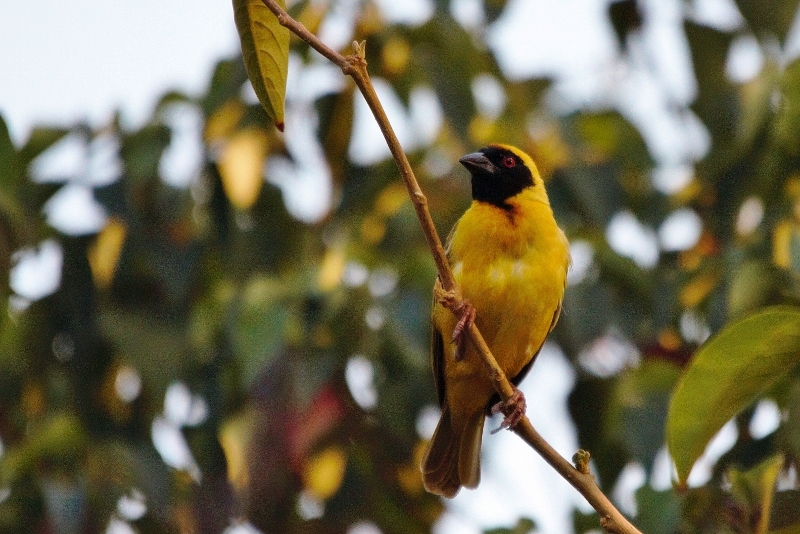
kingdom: Animalia
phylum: Chordata
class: Aves
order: Passeriformes
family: Ploceidae
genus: Ploceus
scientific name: Ploceus velatus
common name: Southern masked weaver
